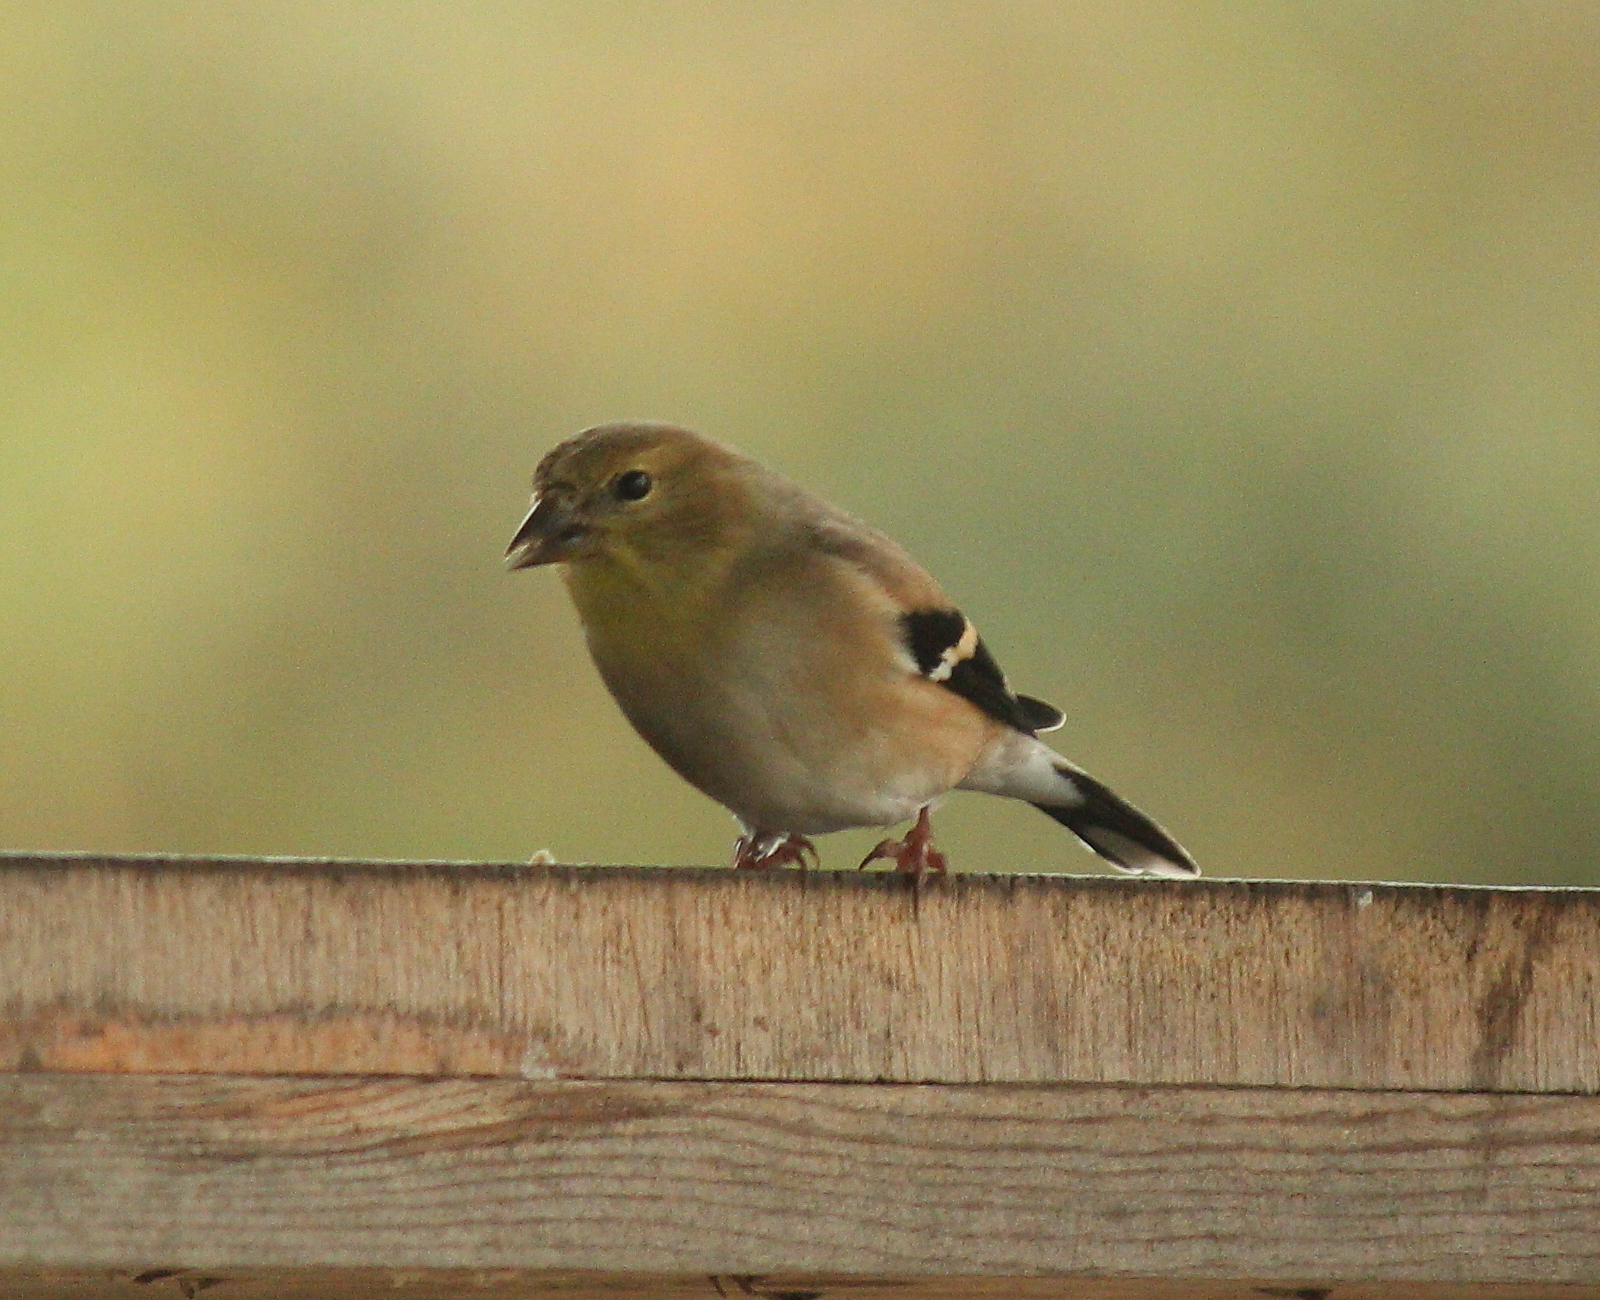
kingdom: Animalia
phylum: Chordata
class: Aves
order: Passeriformes
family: Fringillidae
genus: Spinus
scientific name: Spinus tristis
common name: American goldfinch
